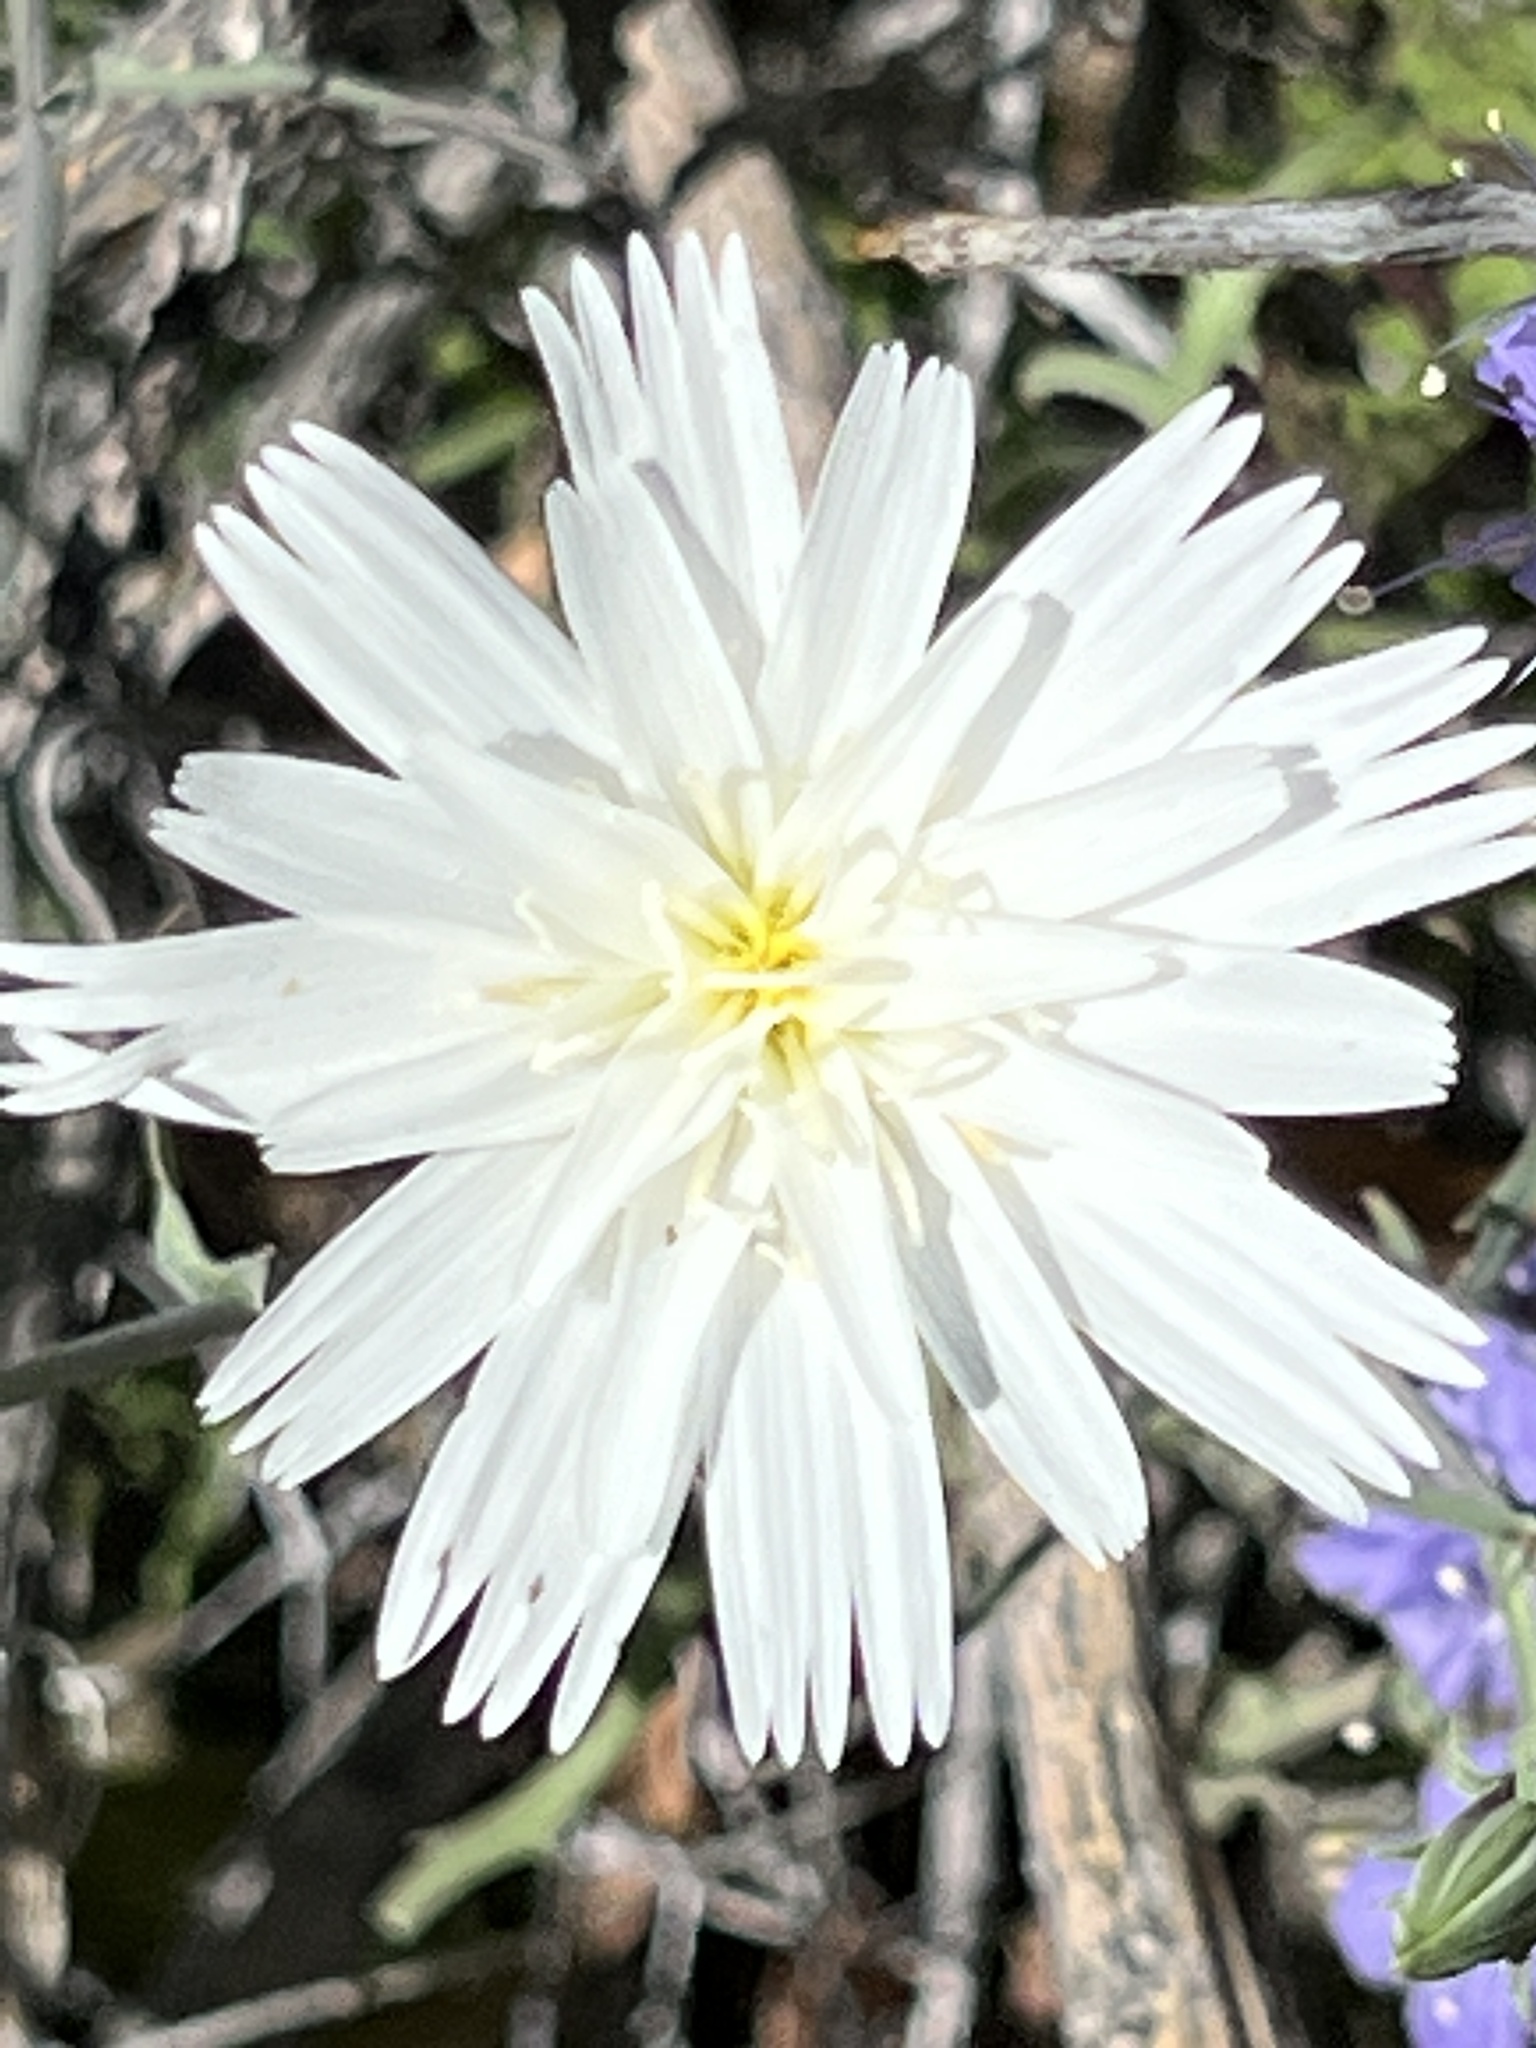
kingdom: Plantae
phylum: Tracheophyta
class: Magnoliopsida
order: Asterales
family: Asteraceae
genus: Rafinesquia
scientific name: Rafinesquia neomexicana
